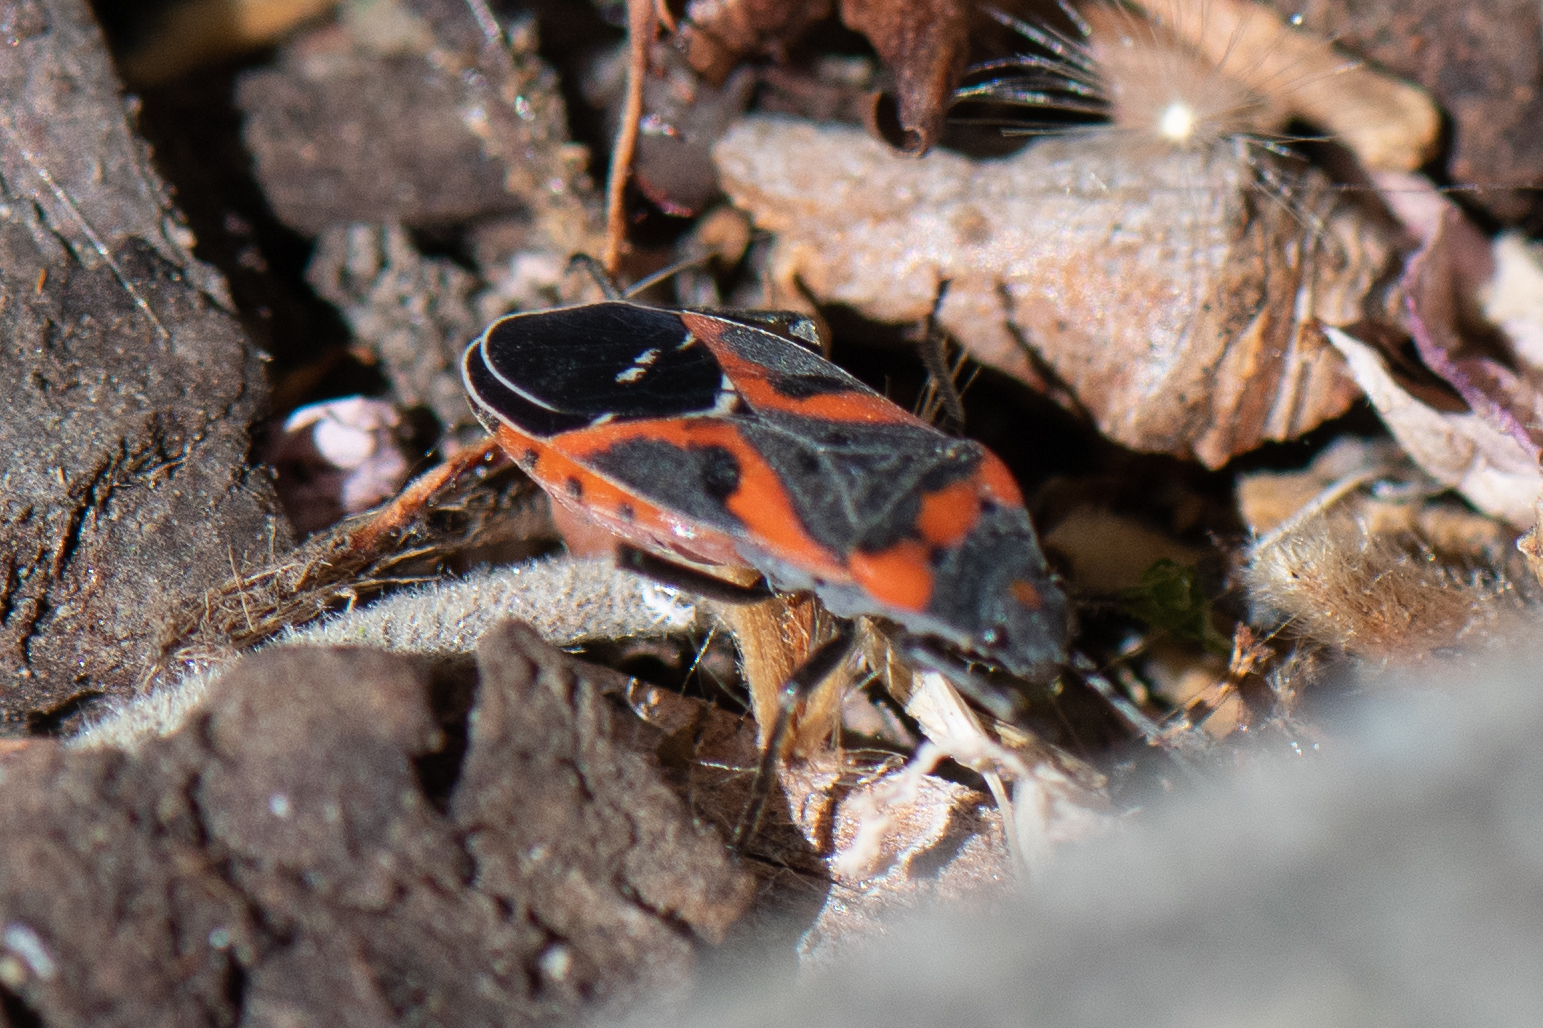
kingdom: Animalia
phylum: Arthropoda
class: Insecta
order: Hemiptera
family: Lygaeidae
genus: Lygaeus
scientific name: Lygaeus kalmii
